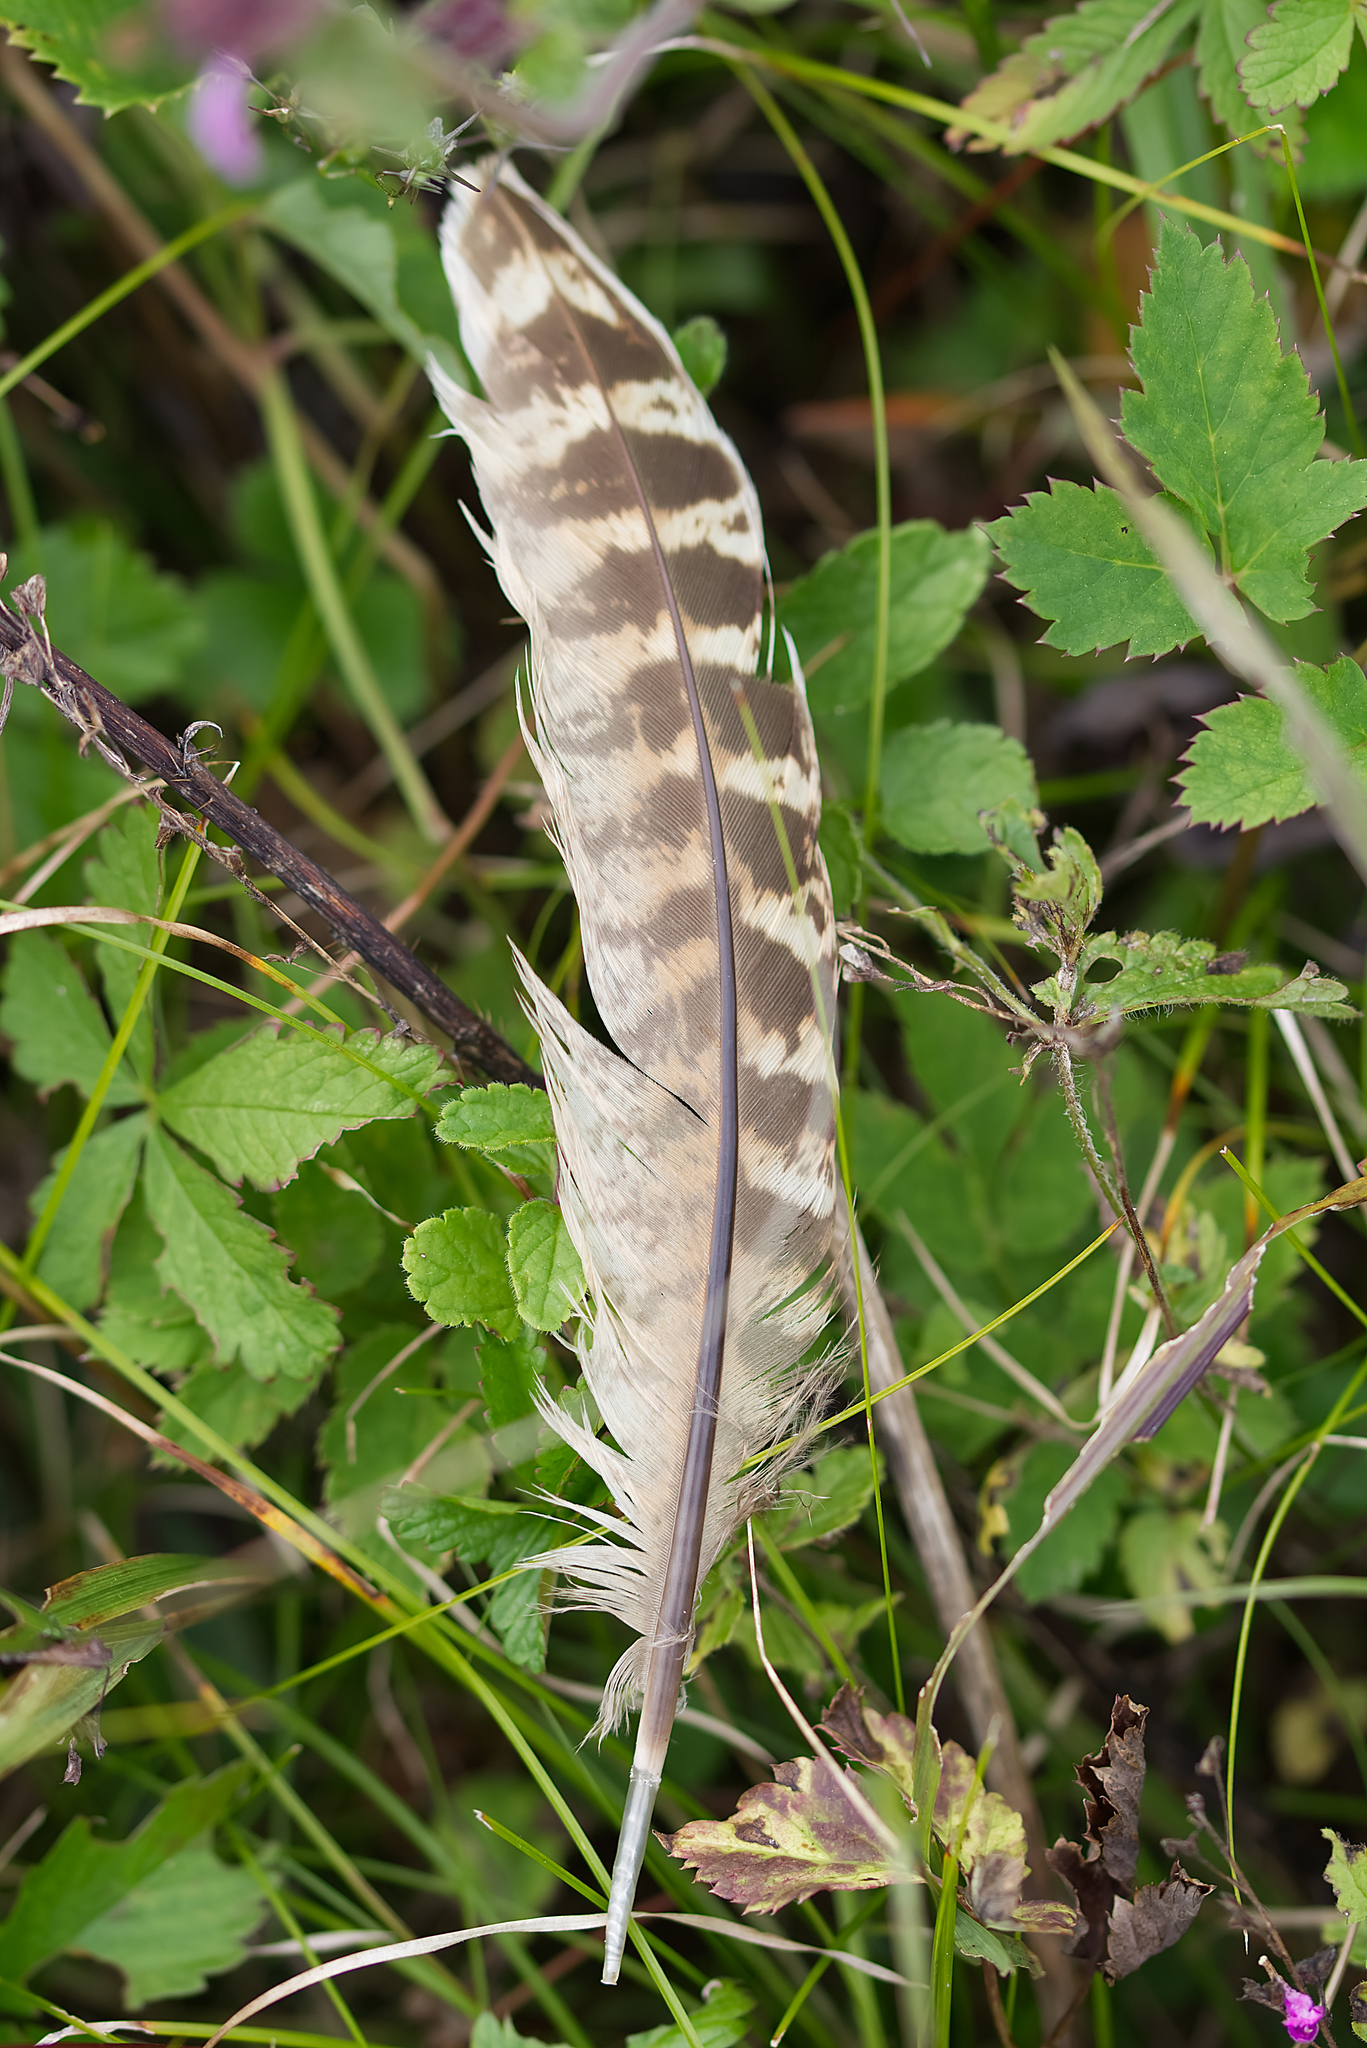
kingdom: Animalia
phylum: Chordata
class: Aves
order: Galliformes
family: Phasianidae
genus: Phasianus
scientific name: Phasianus colchicus
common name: Common pheasant
